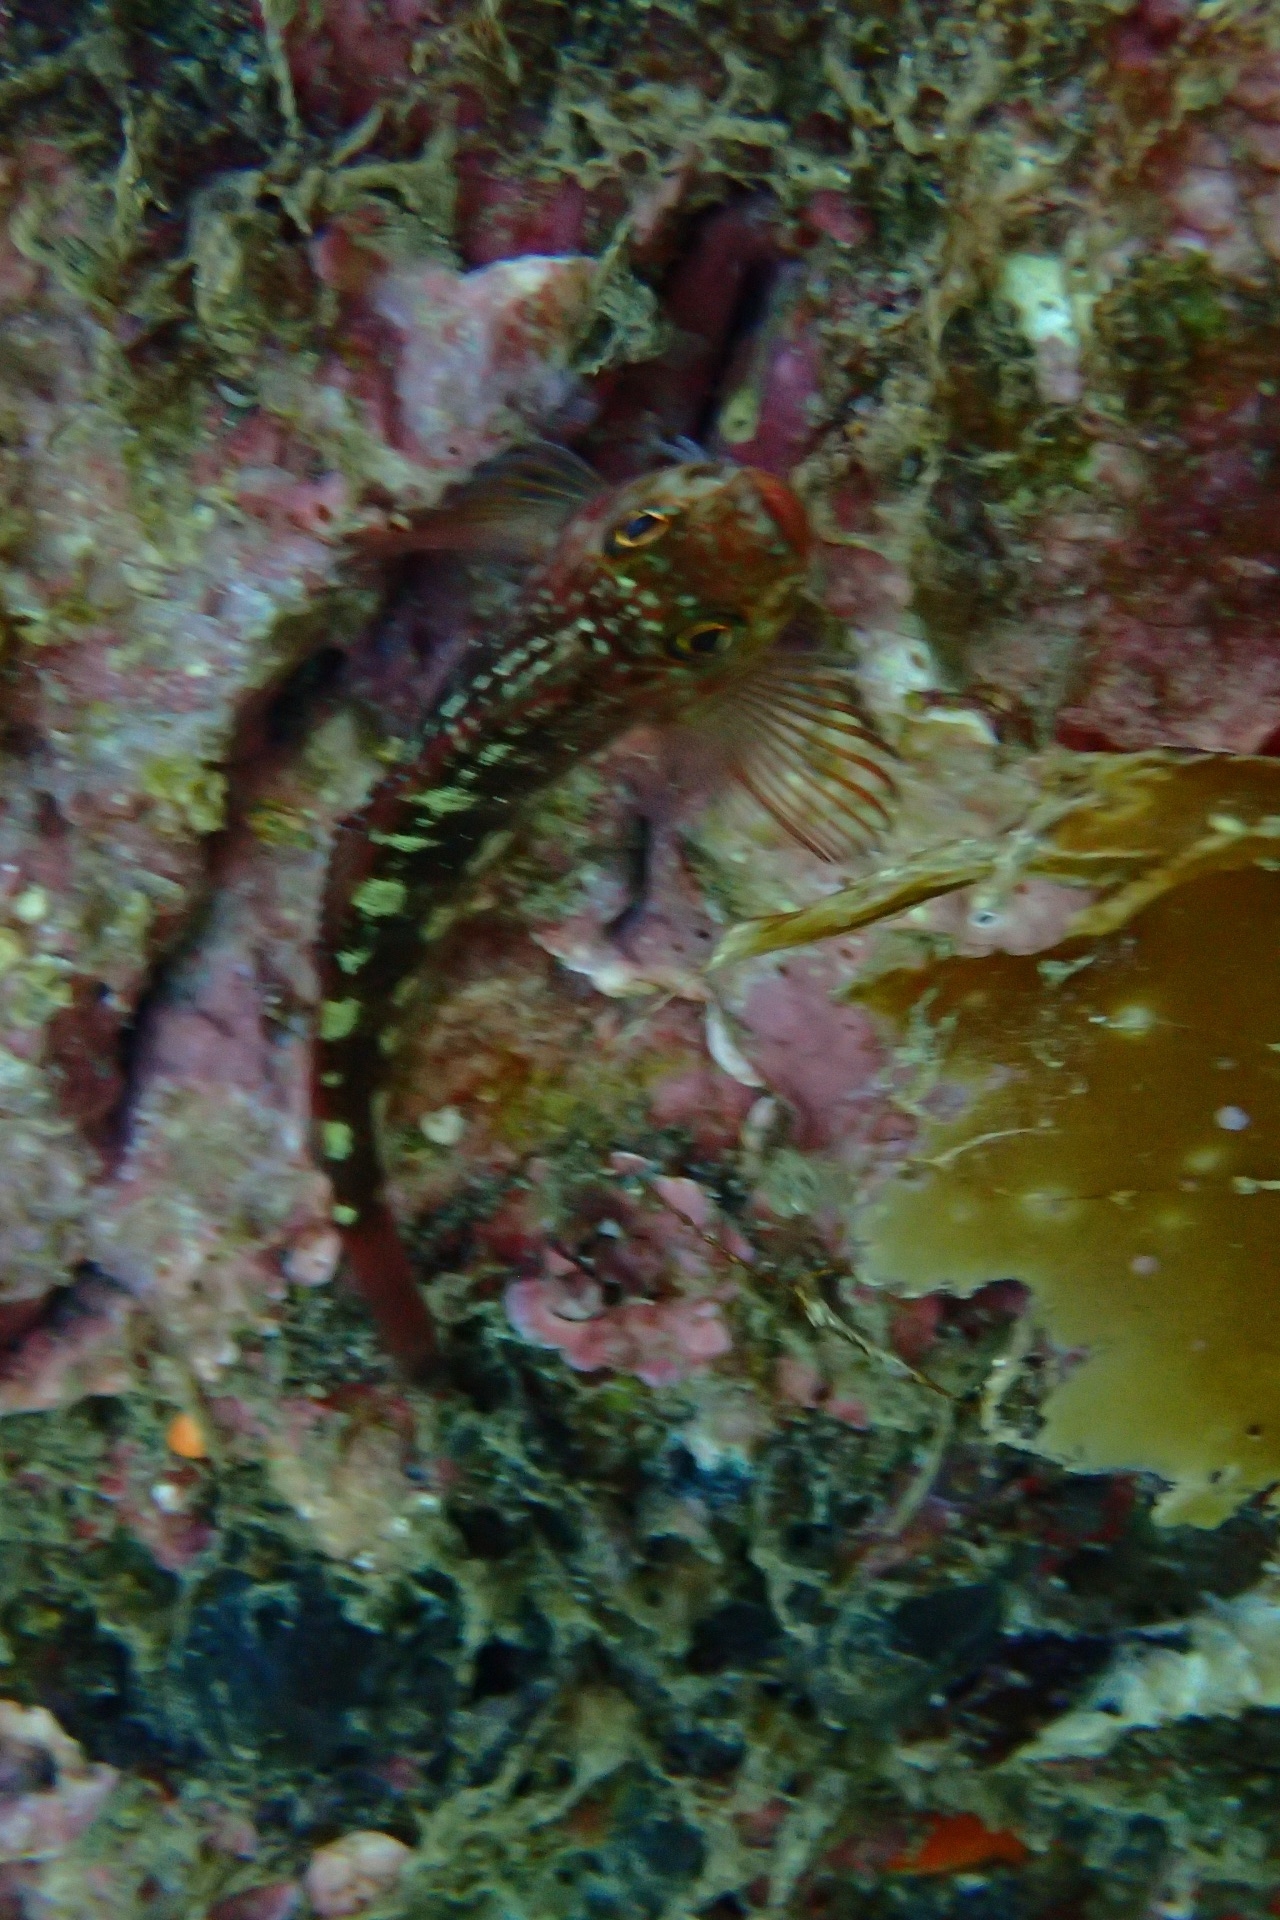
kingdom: Animalia
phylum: Chordata
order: Perciformes
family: Tripterygiidae
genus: Forsterygion
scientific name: Forsterygion varium
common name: Variable triplefin
